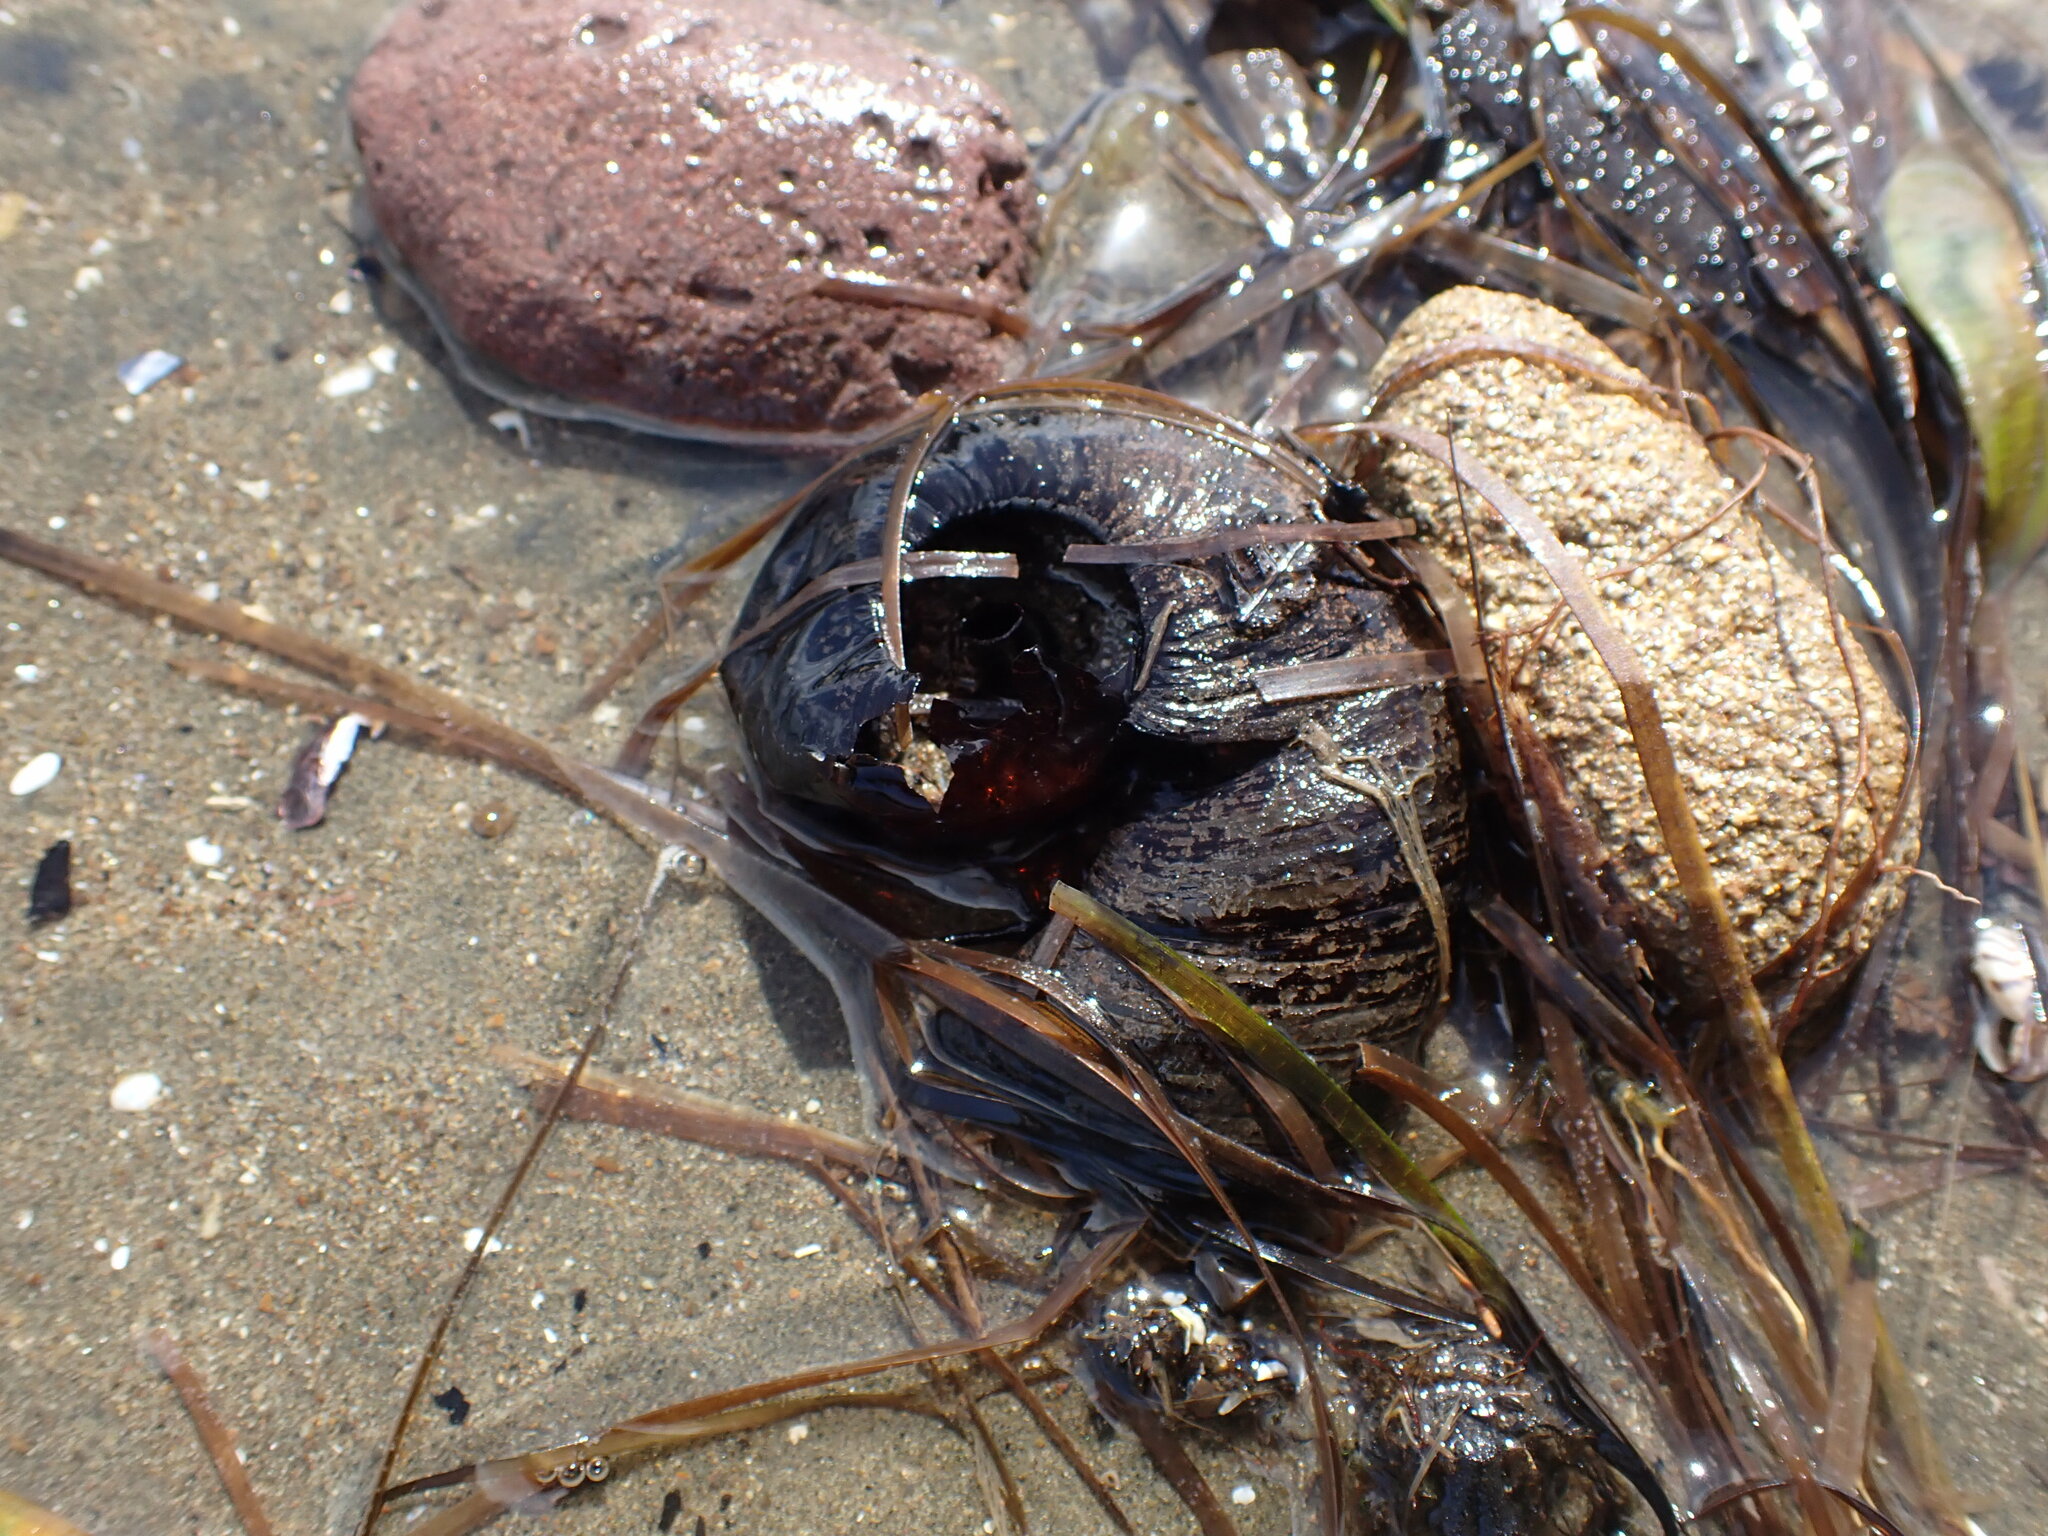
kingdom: Animalia
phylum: Mollusca
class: Gastropoda
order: Stylommatophora
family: Rhytididae
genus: Paryphanta
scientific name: Paryphanta busbyi
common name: Kauri snail
